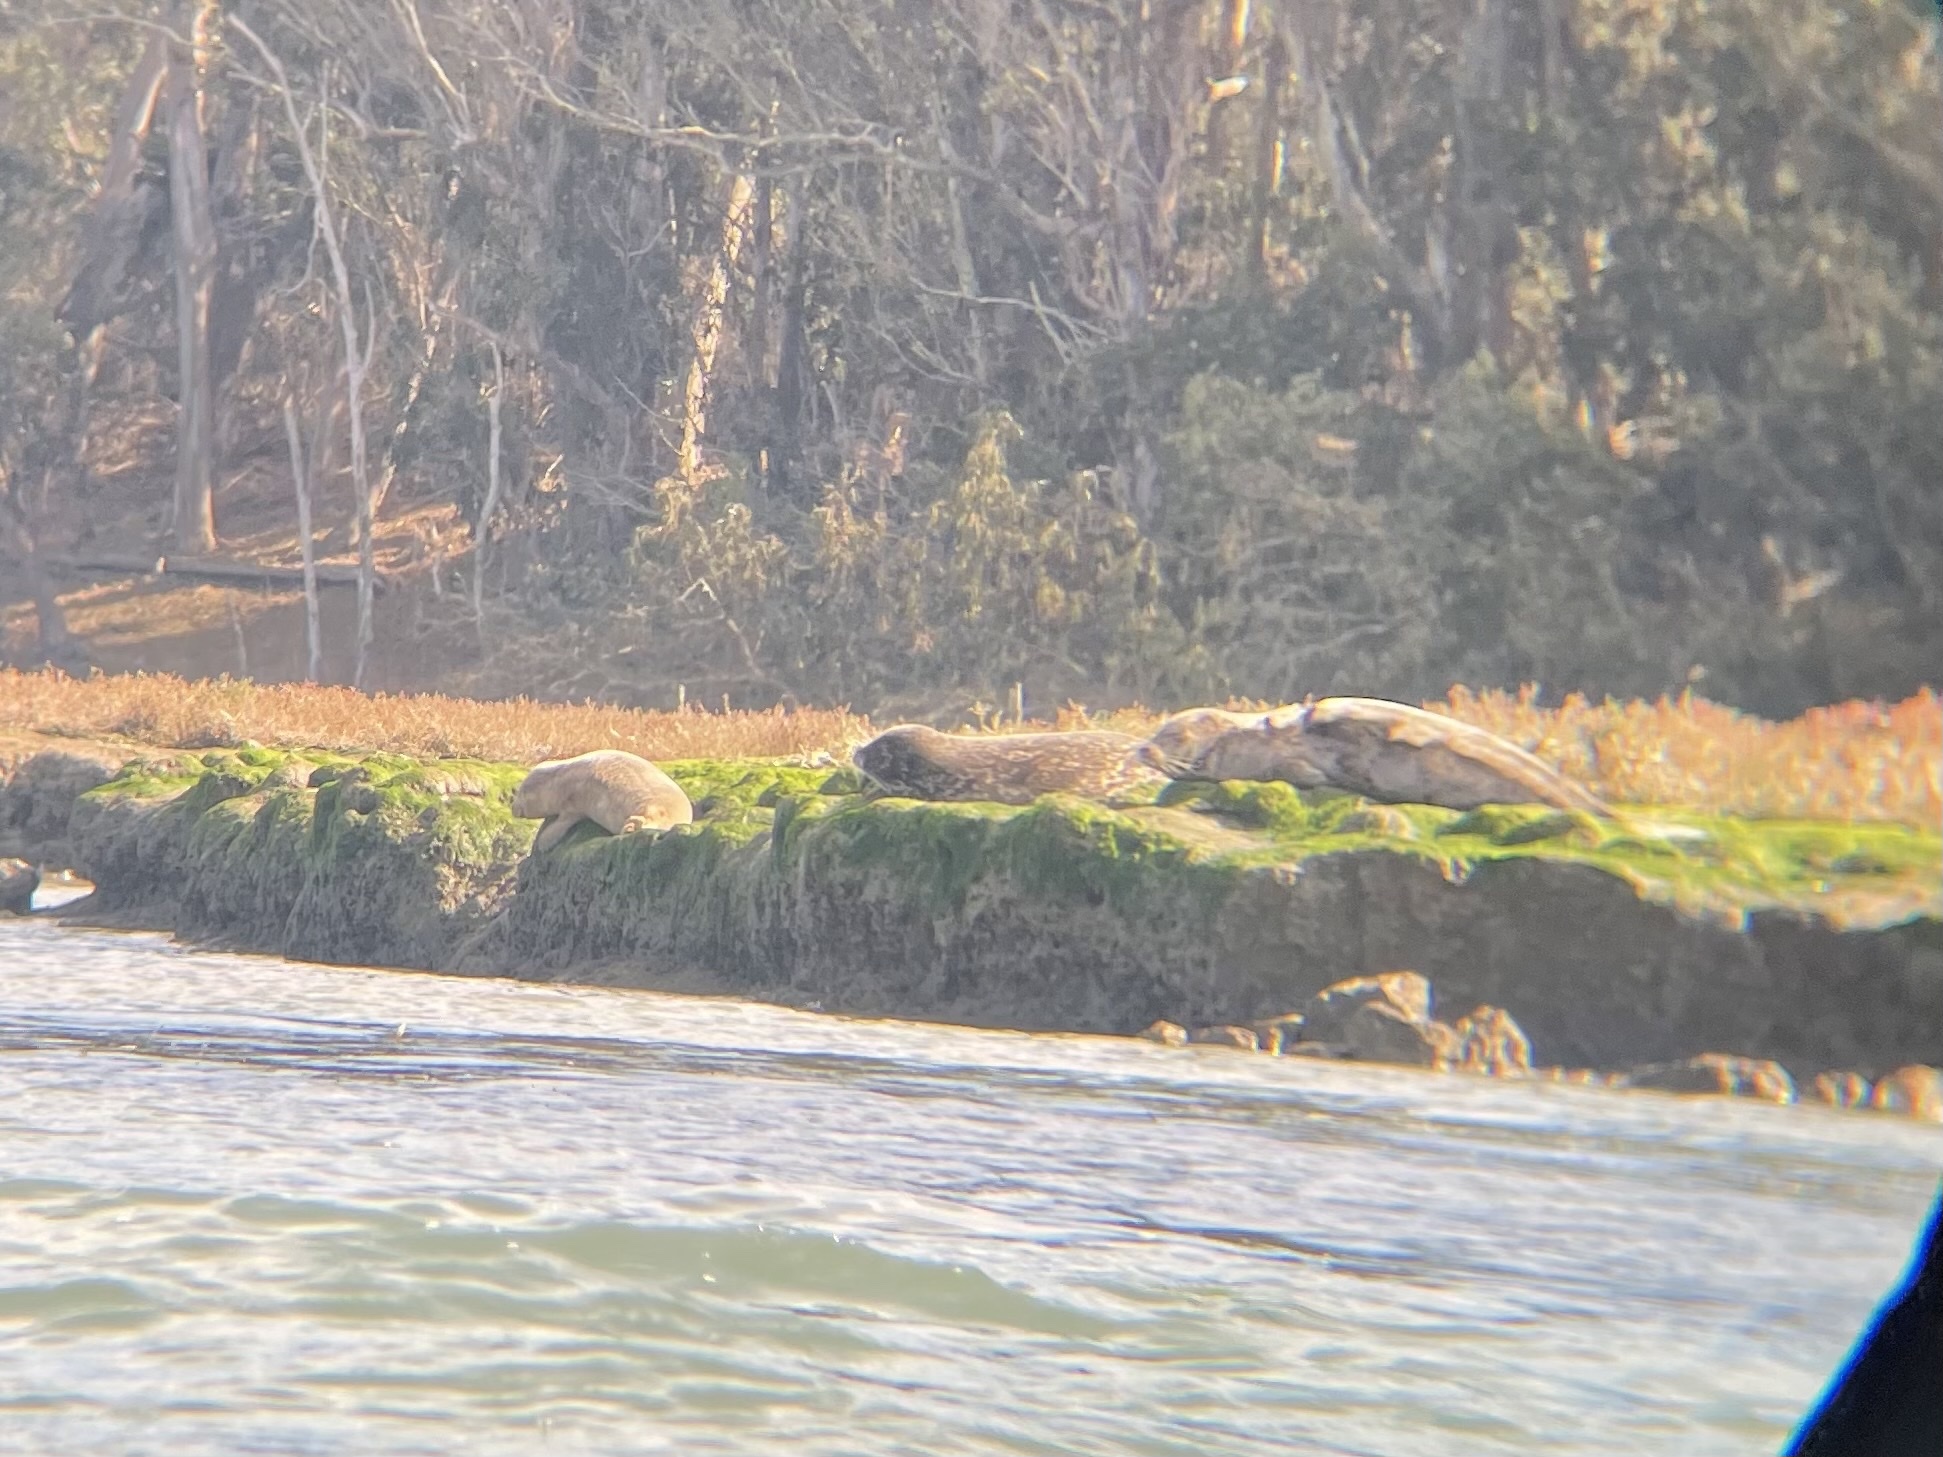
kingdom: Animalia
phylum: Chordata
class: Mammalia
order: Carnivora
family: Phocidae
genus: Phoca
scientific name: Phoca vitulina
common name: Harbor seal
